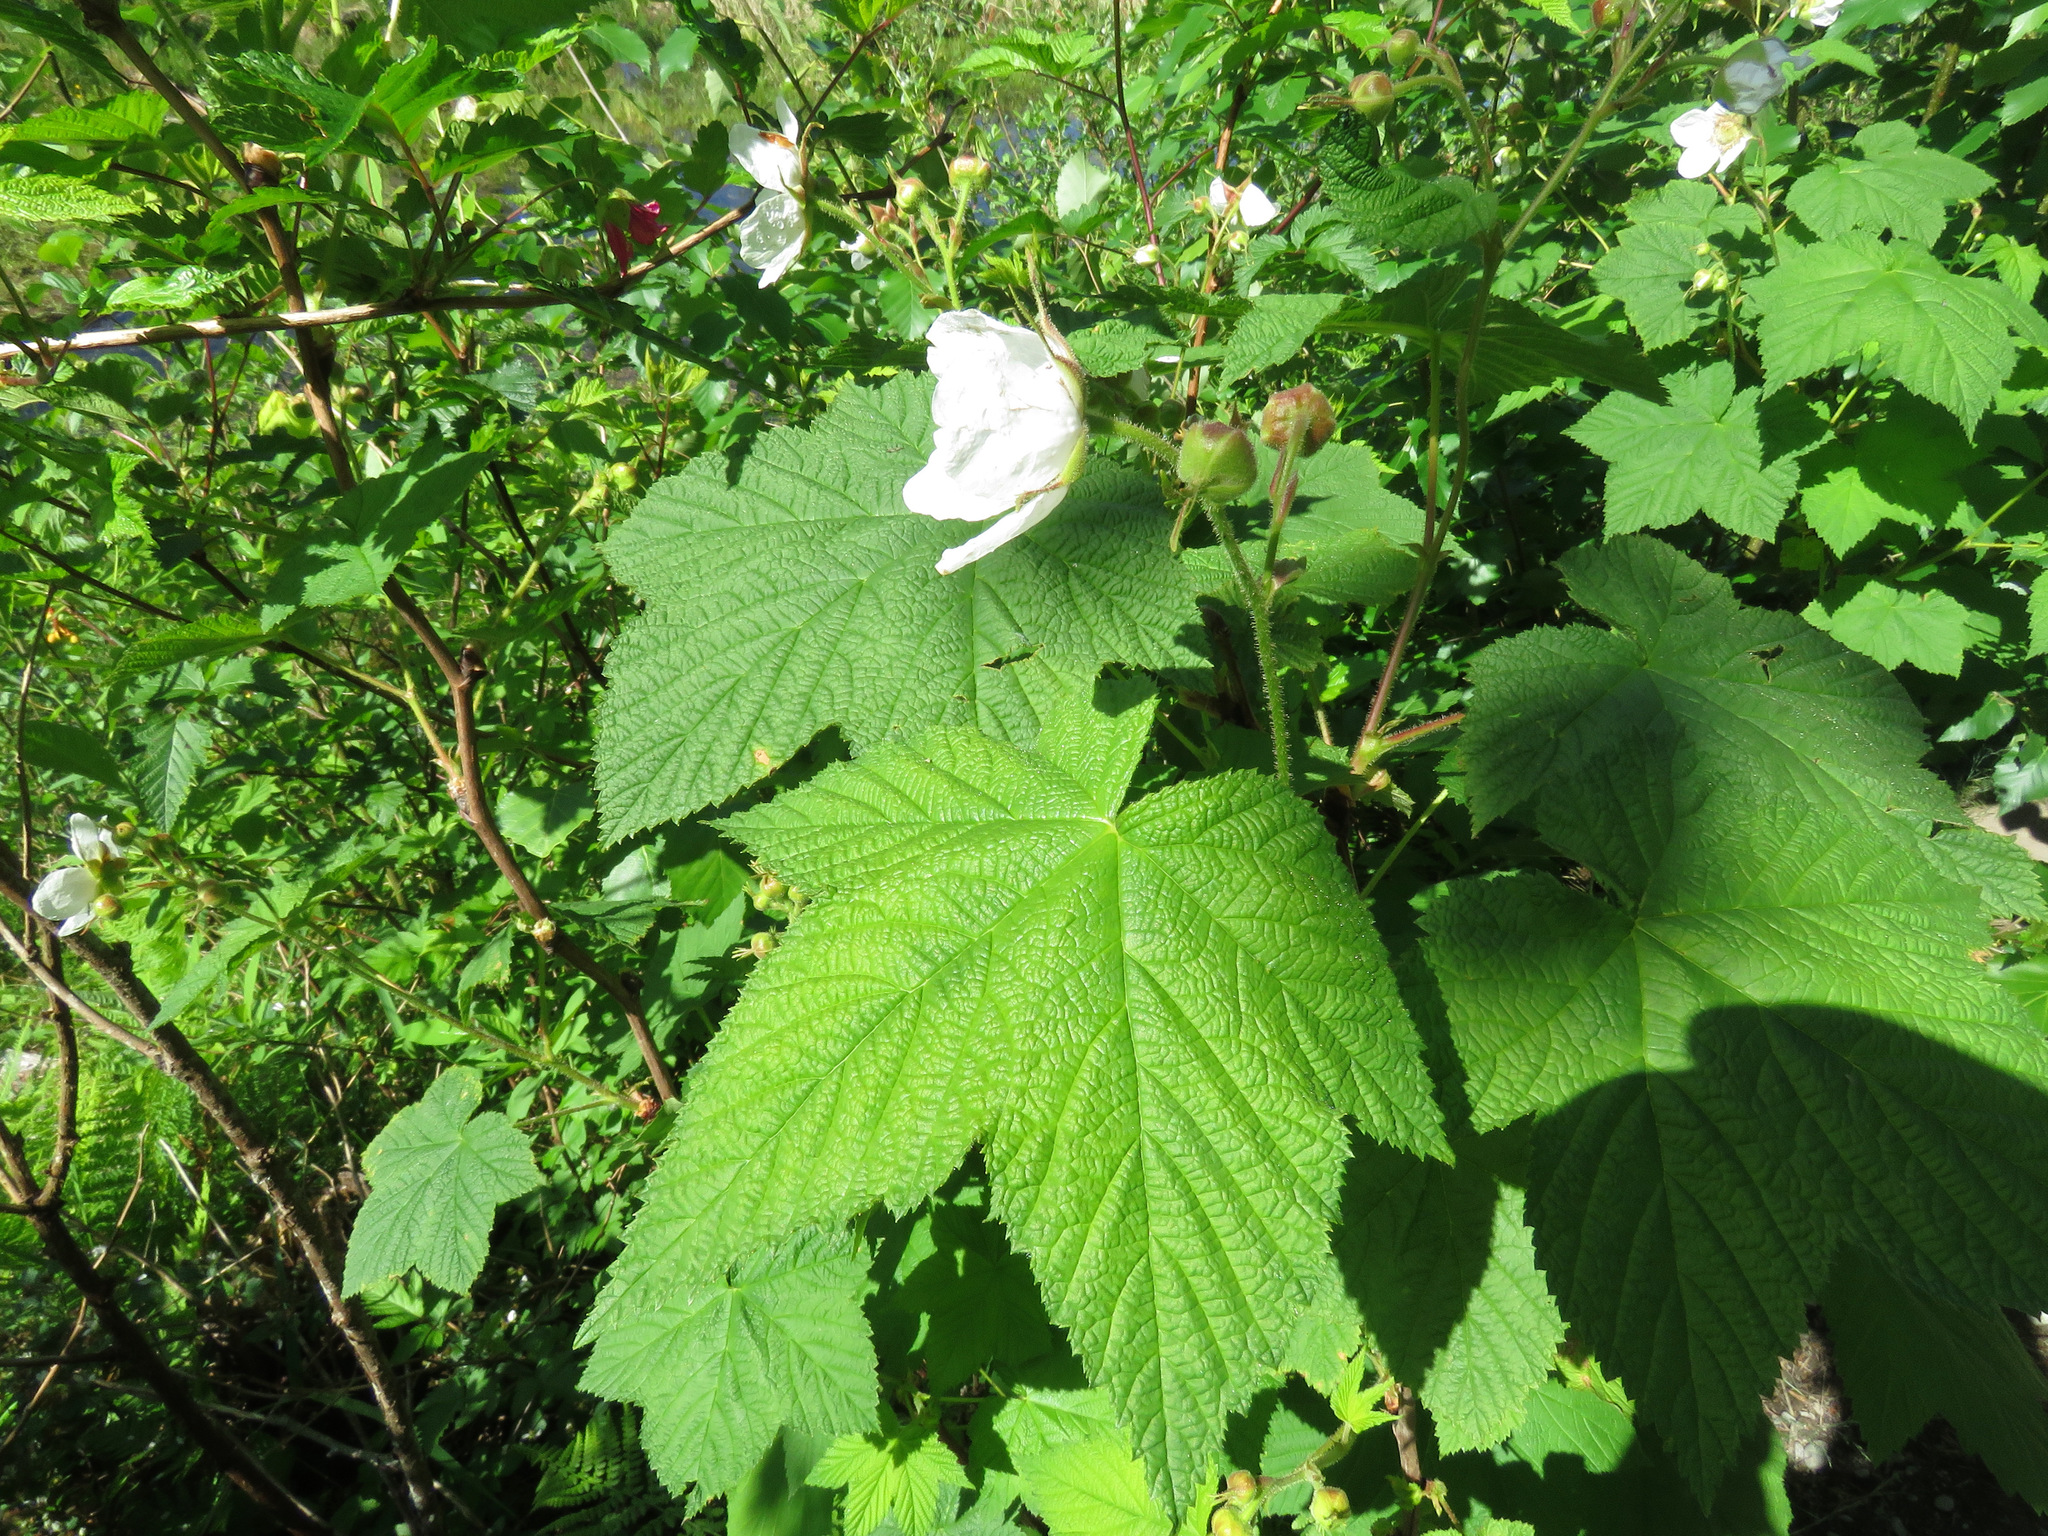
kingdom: Plantae
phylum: Tracheophyta
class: Magnoliopsida
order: Rosales
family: Rosaceae
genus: Rubus
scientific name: Rubus parviflorus
